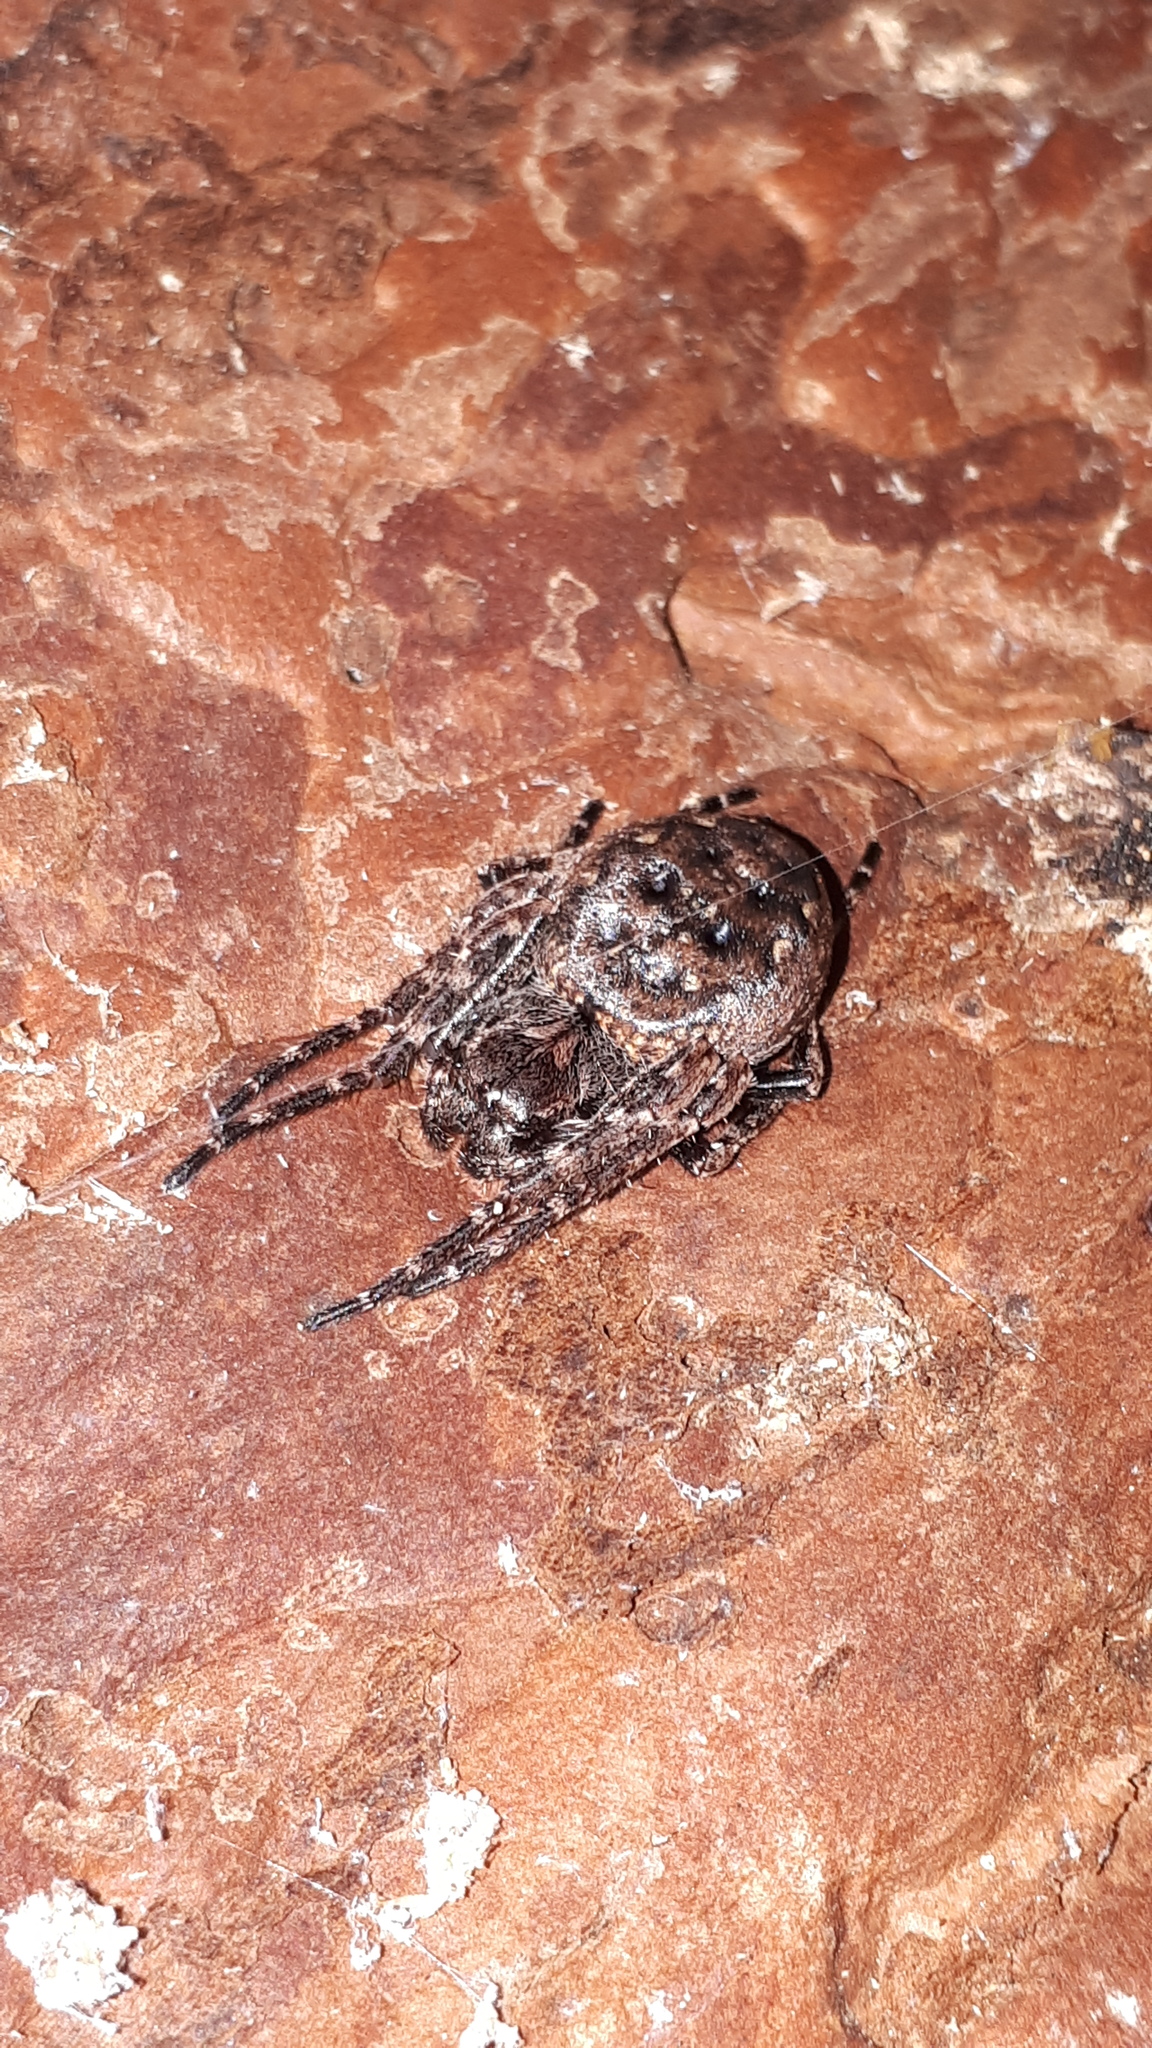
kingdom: Animalia
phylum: Arthropoda
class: Arachnida
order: Araneae
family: Araneidae
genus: Nuctenea
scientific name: Nuctenea umbratica
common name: Toad spider
